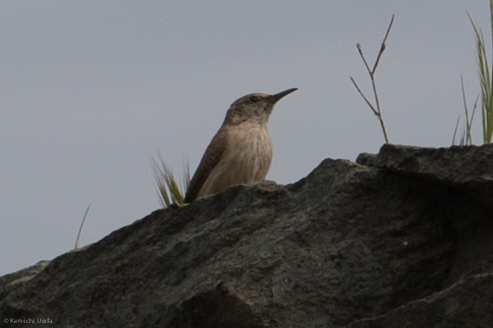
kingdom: Animalia
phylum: Chordata
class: Aves
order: Passeriformes
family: Troglodytidae
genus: Salpinctes
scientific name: Salpinctes obsoletus
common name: Rock wren
